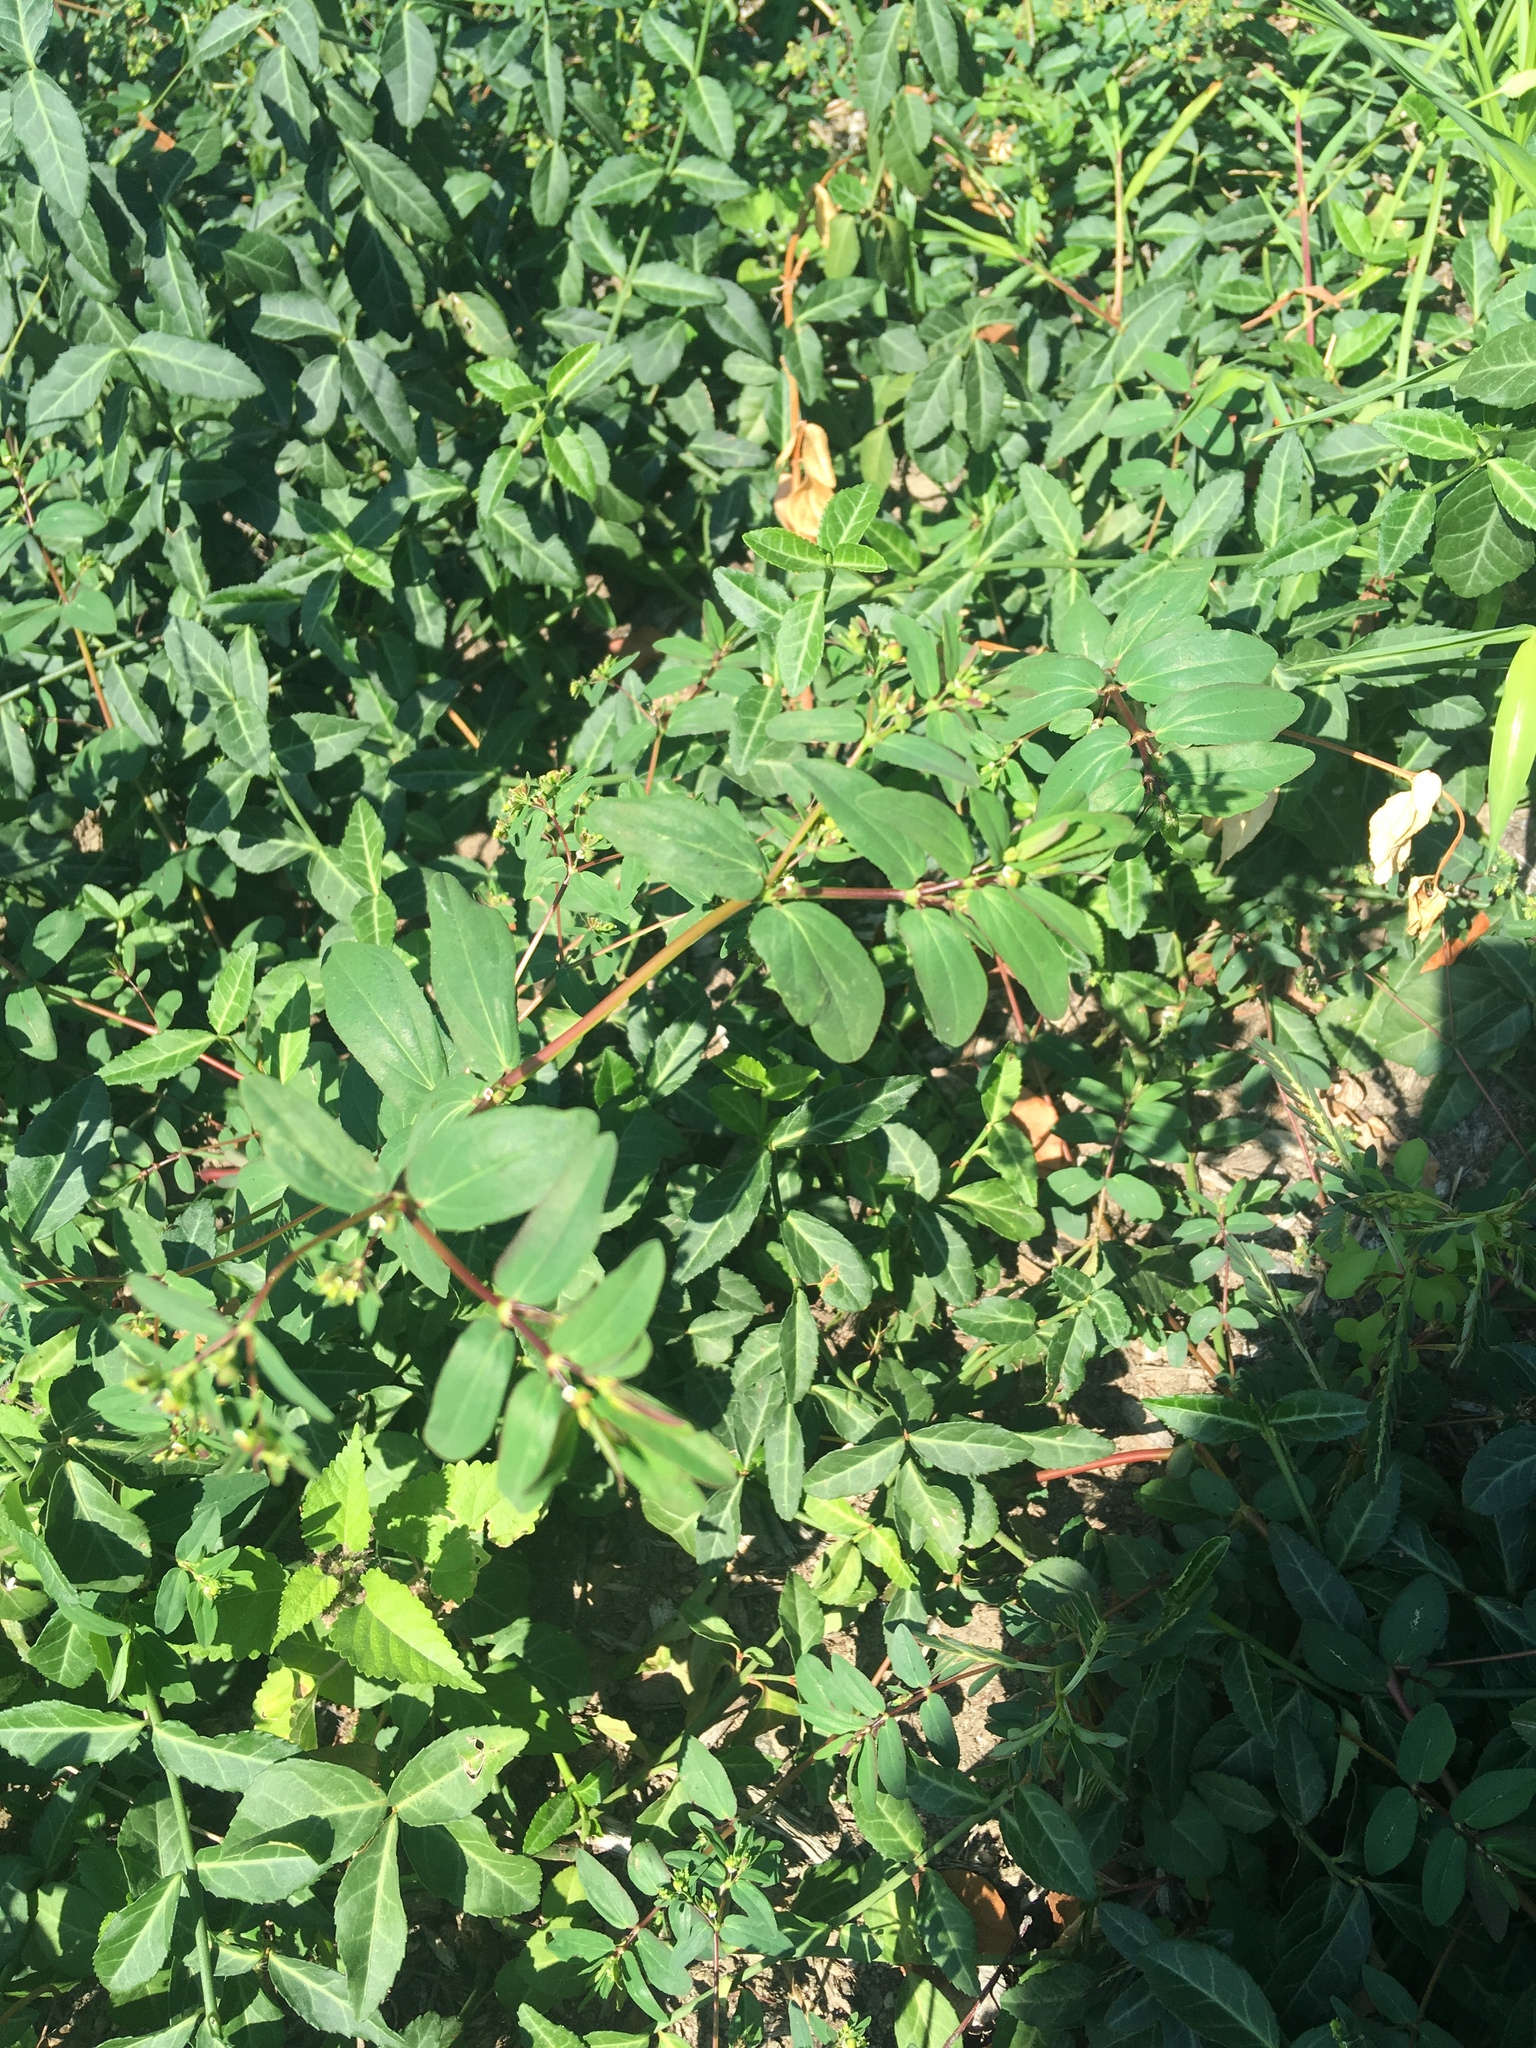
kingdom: Plantae
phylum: Tracheophyta
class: Magnoliopsida
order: Malpighiales
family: Euphorbiaceae
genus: Euphorbia
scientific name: Euphorbia hyssopifolia
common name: Hyssopleaf sandmat
